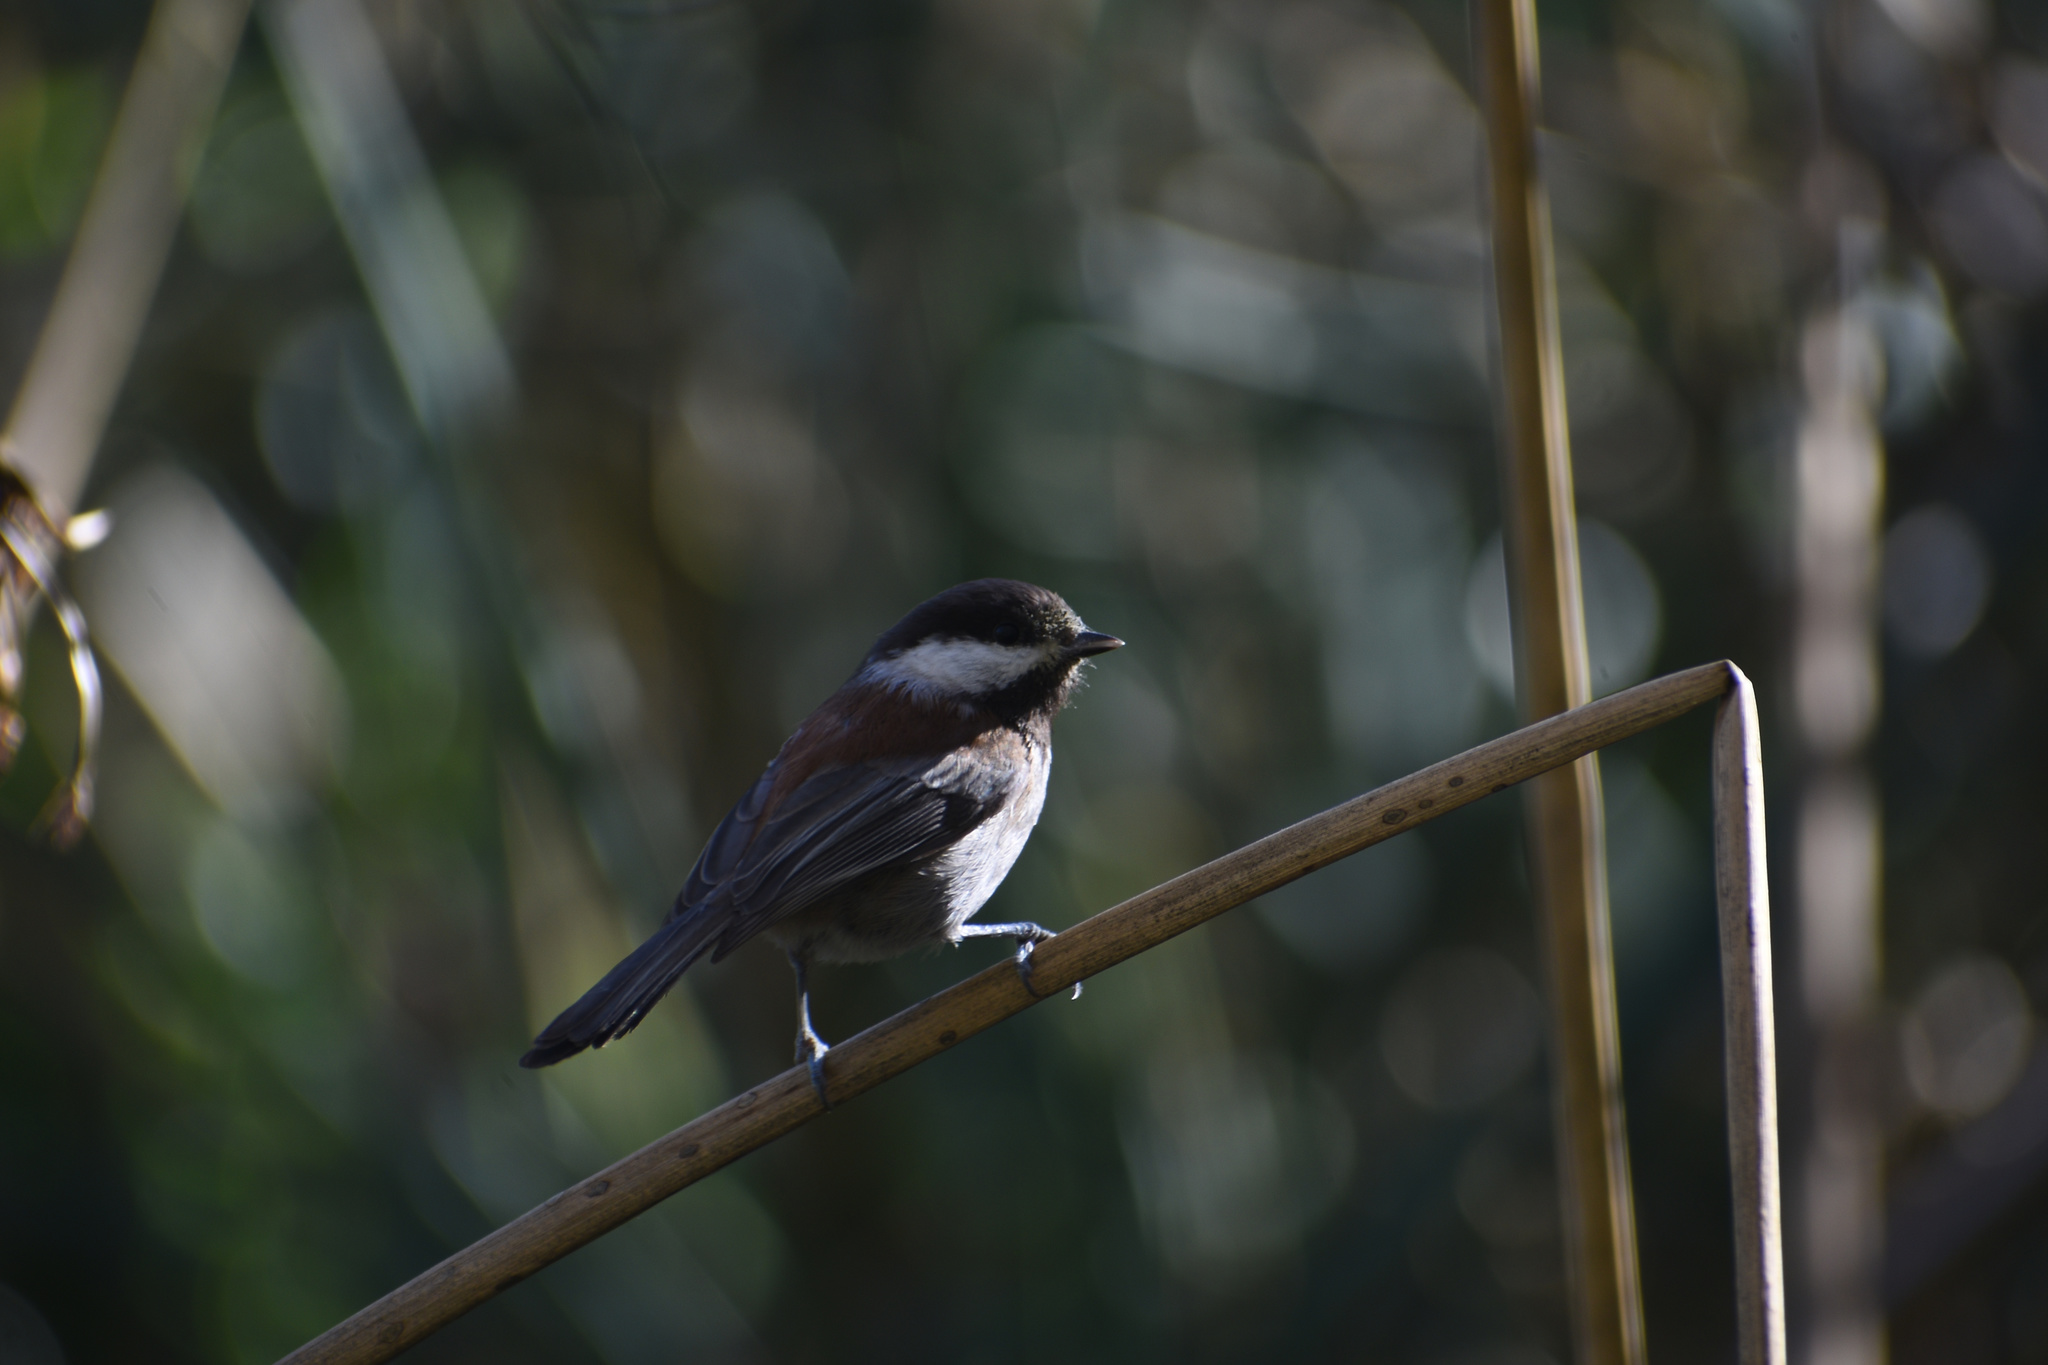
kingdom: Animalia
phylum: Chordata
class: Aves
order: Passeriformes
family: Paridae
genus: Poecile
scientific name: Poecile rufescens
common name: Chestnut-backed chickadee
